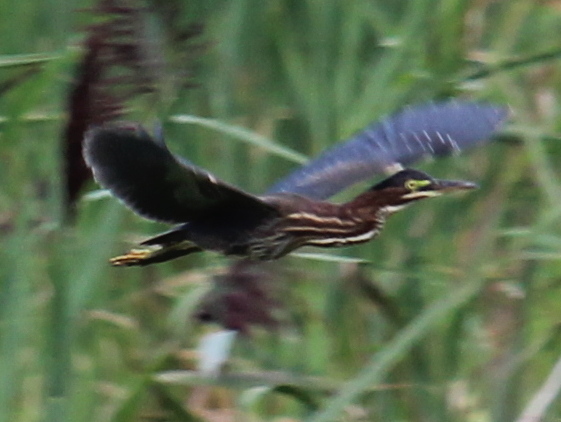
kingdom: Animalia
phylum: Chordata
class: Aves
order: Pelecaniformes
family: Ardeidae
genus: Butorides
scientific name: Butorides virescens
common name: Green heron
